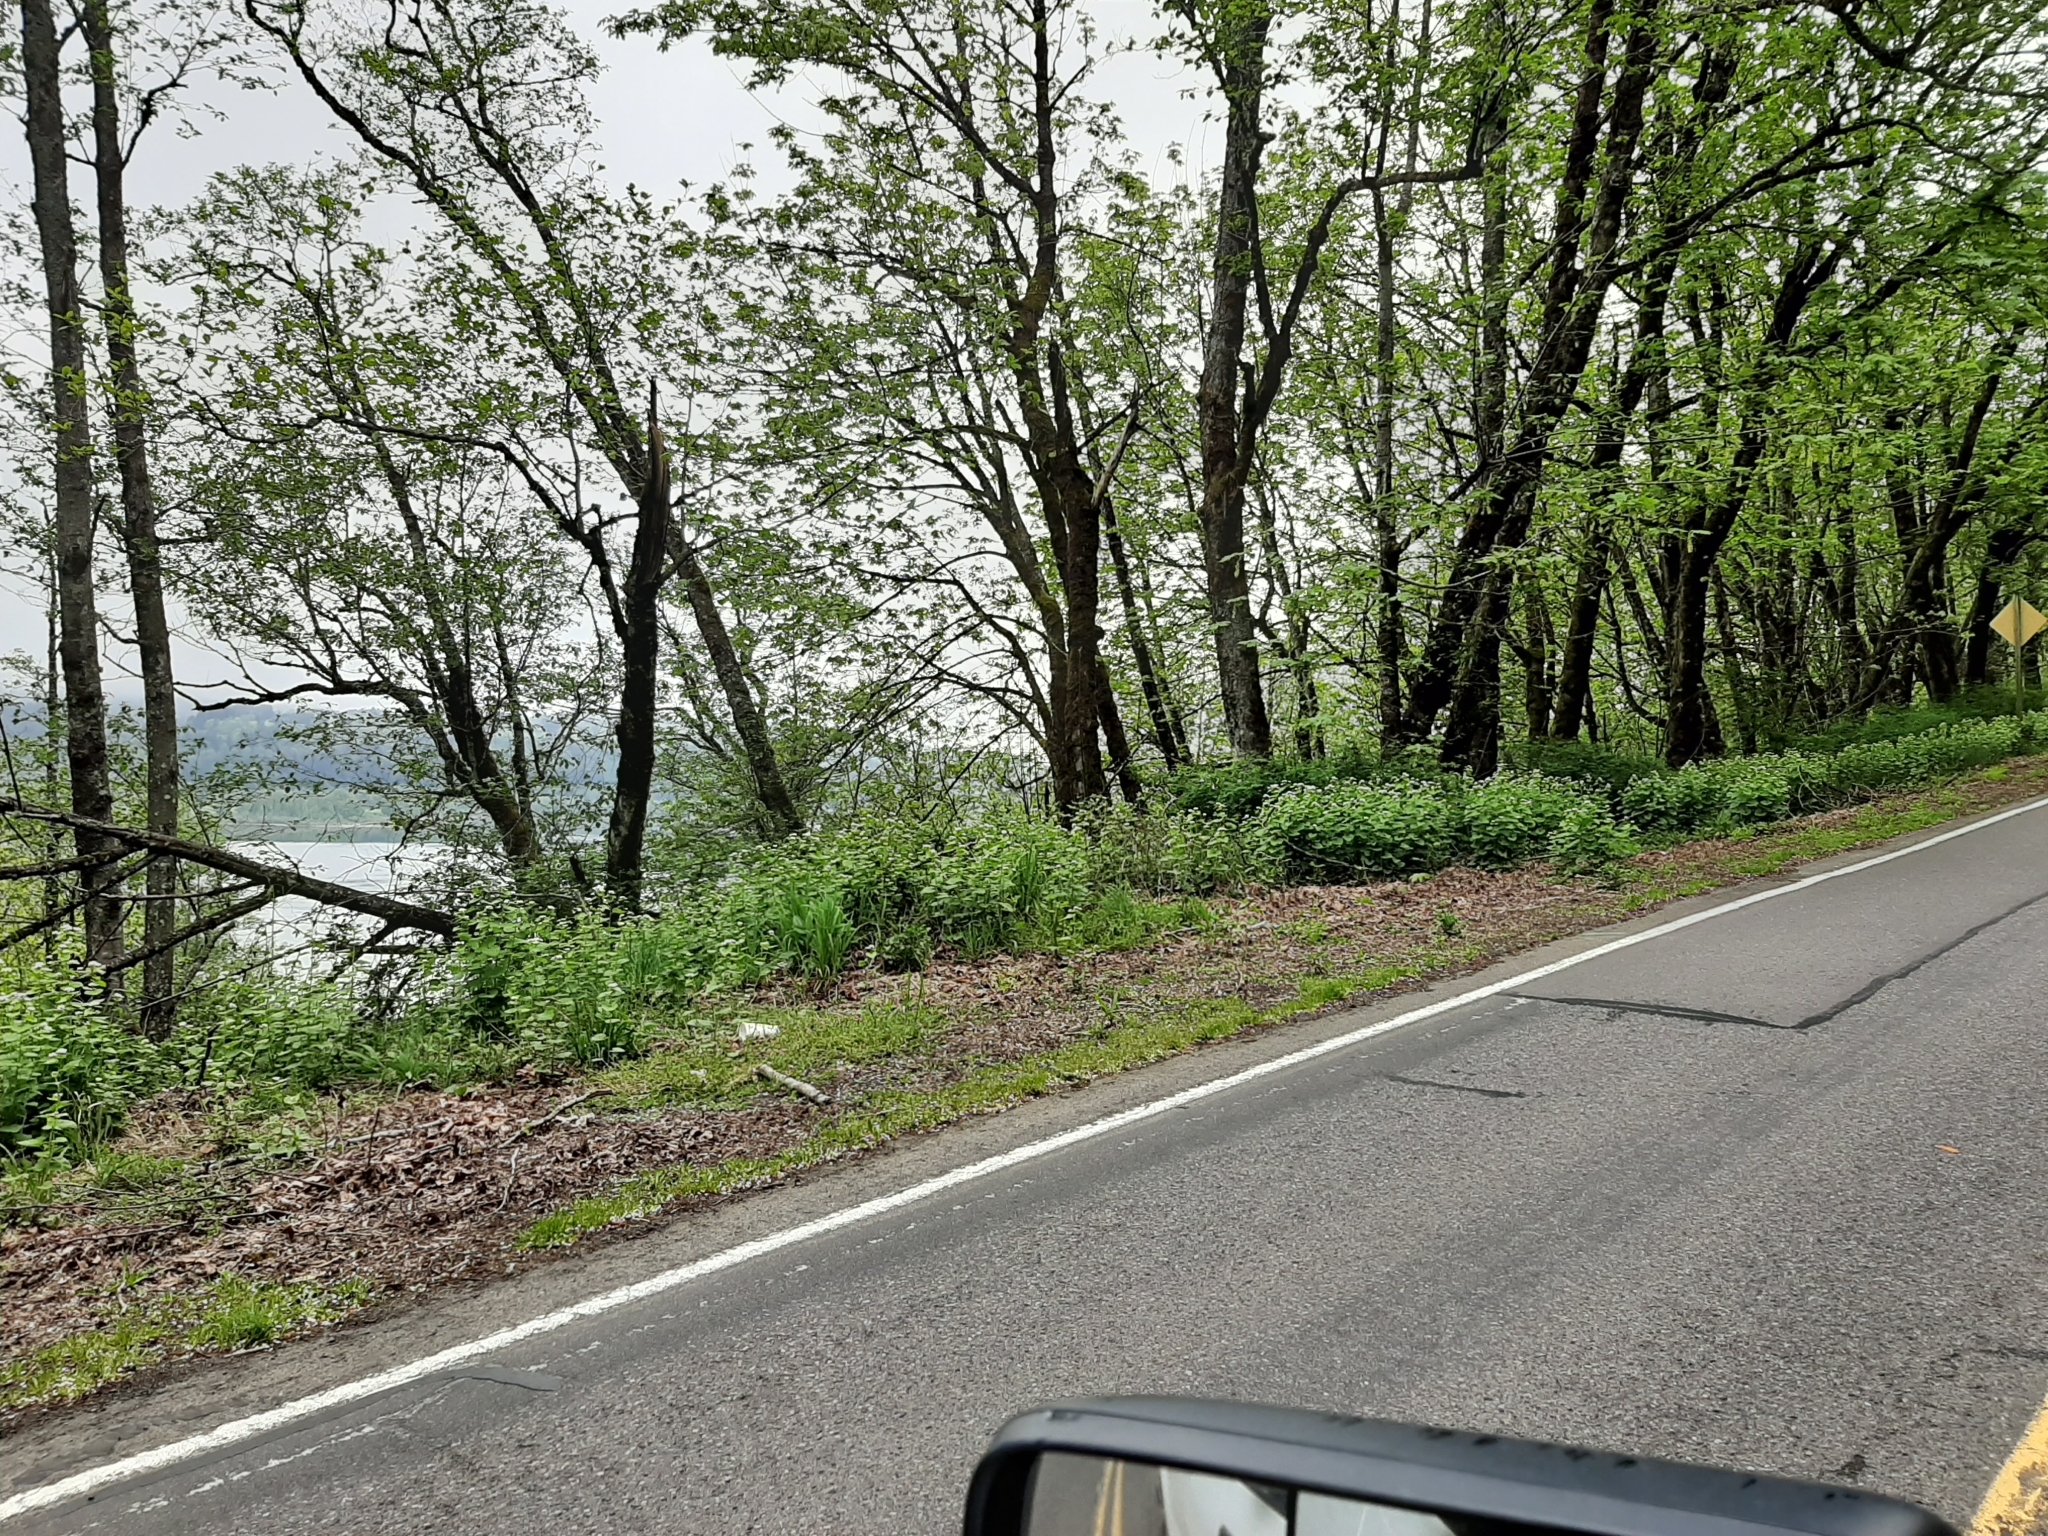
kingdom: Plantae
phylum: Tracheophyta
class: Magnoliopsida
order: Brassicales
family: Brassicaceae
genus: Alliaria
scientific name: Alliaria petiolata
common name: Garlic mustard
